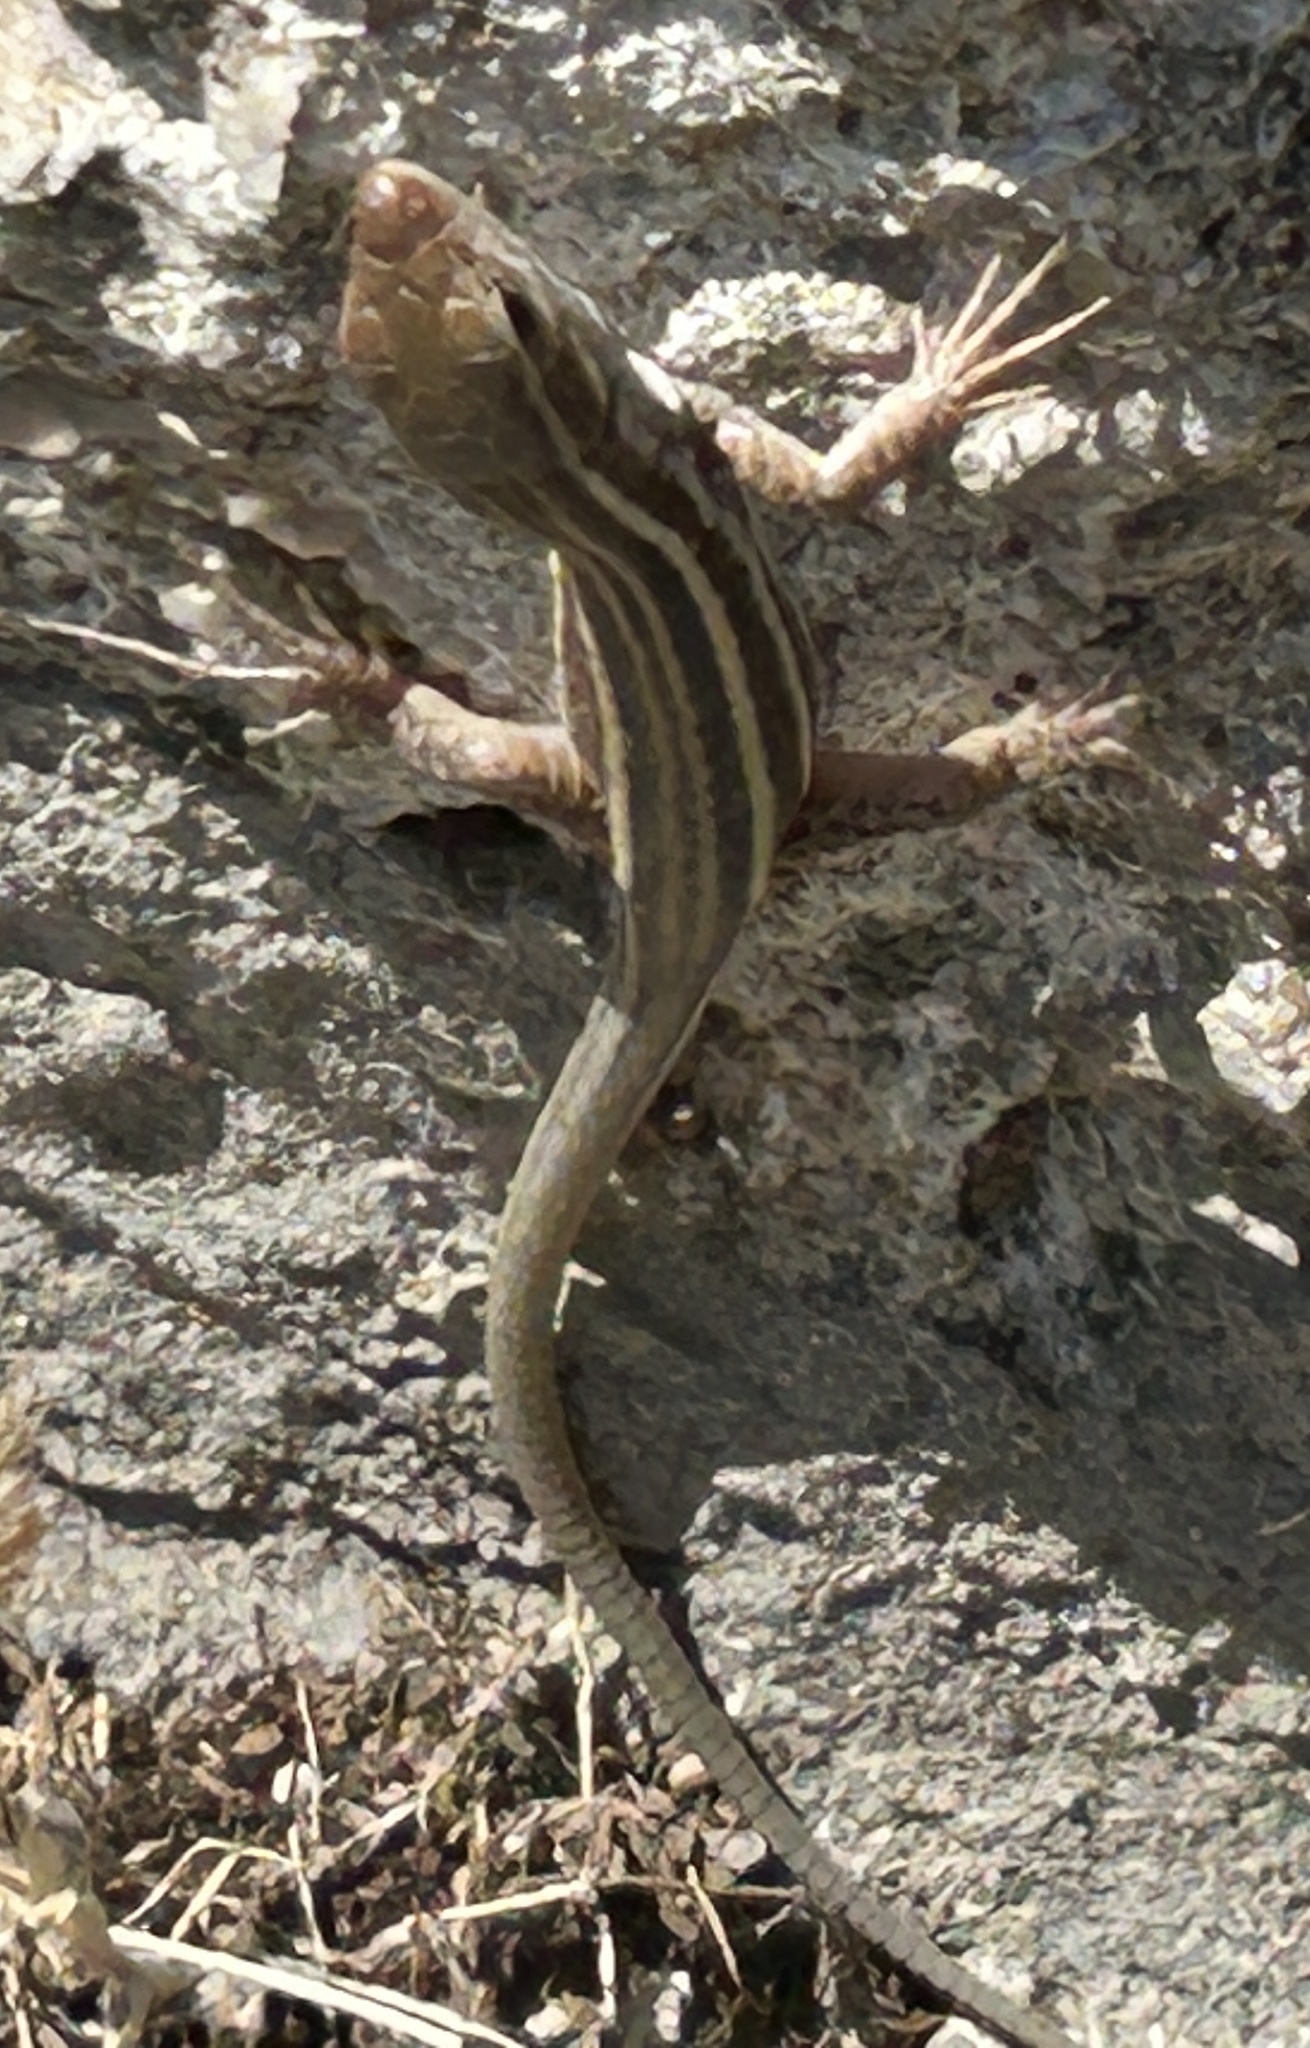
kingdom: Animalia
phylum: Chordata
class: Squamata
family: Lacertidae
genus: Podarcis
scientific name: Podarcis peloponnesiacus
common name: Peloponnese wall lizard
